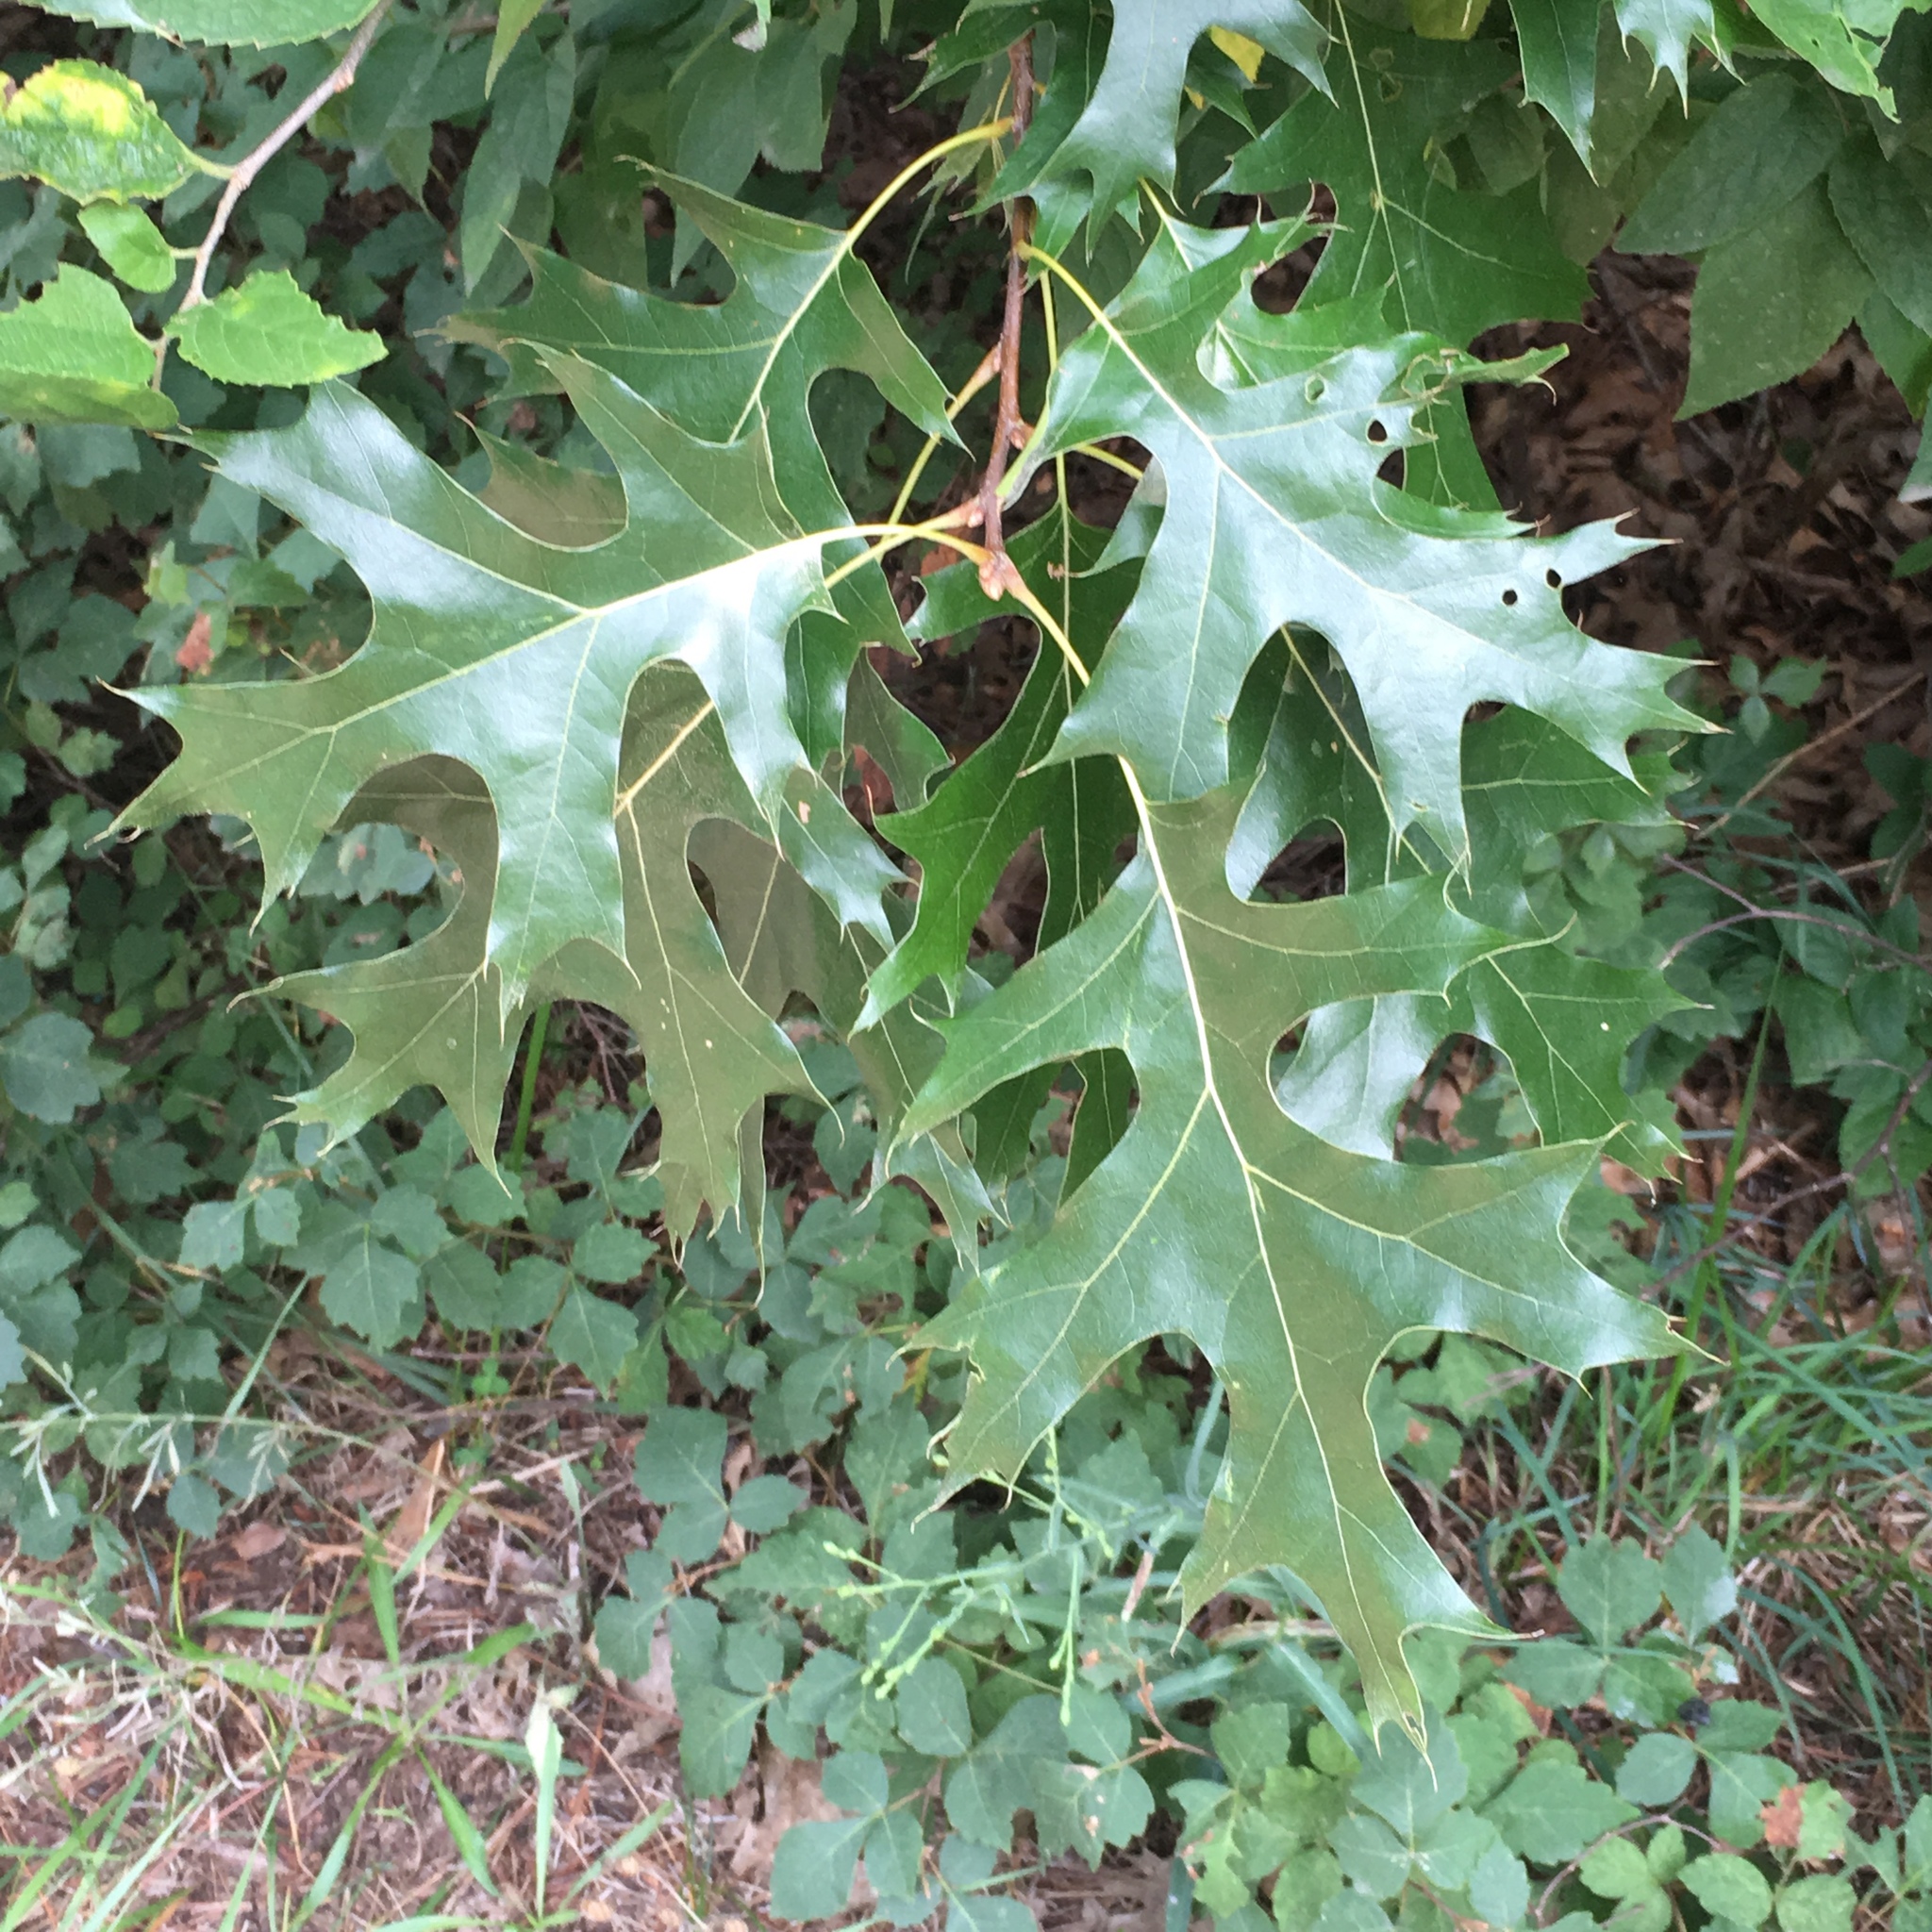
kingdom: Plantae
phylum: Tracheophyta
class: Magnoliopsida
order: Fagales
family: Fagaceae
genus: Quercus
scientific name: Quercus
